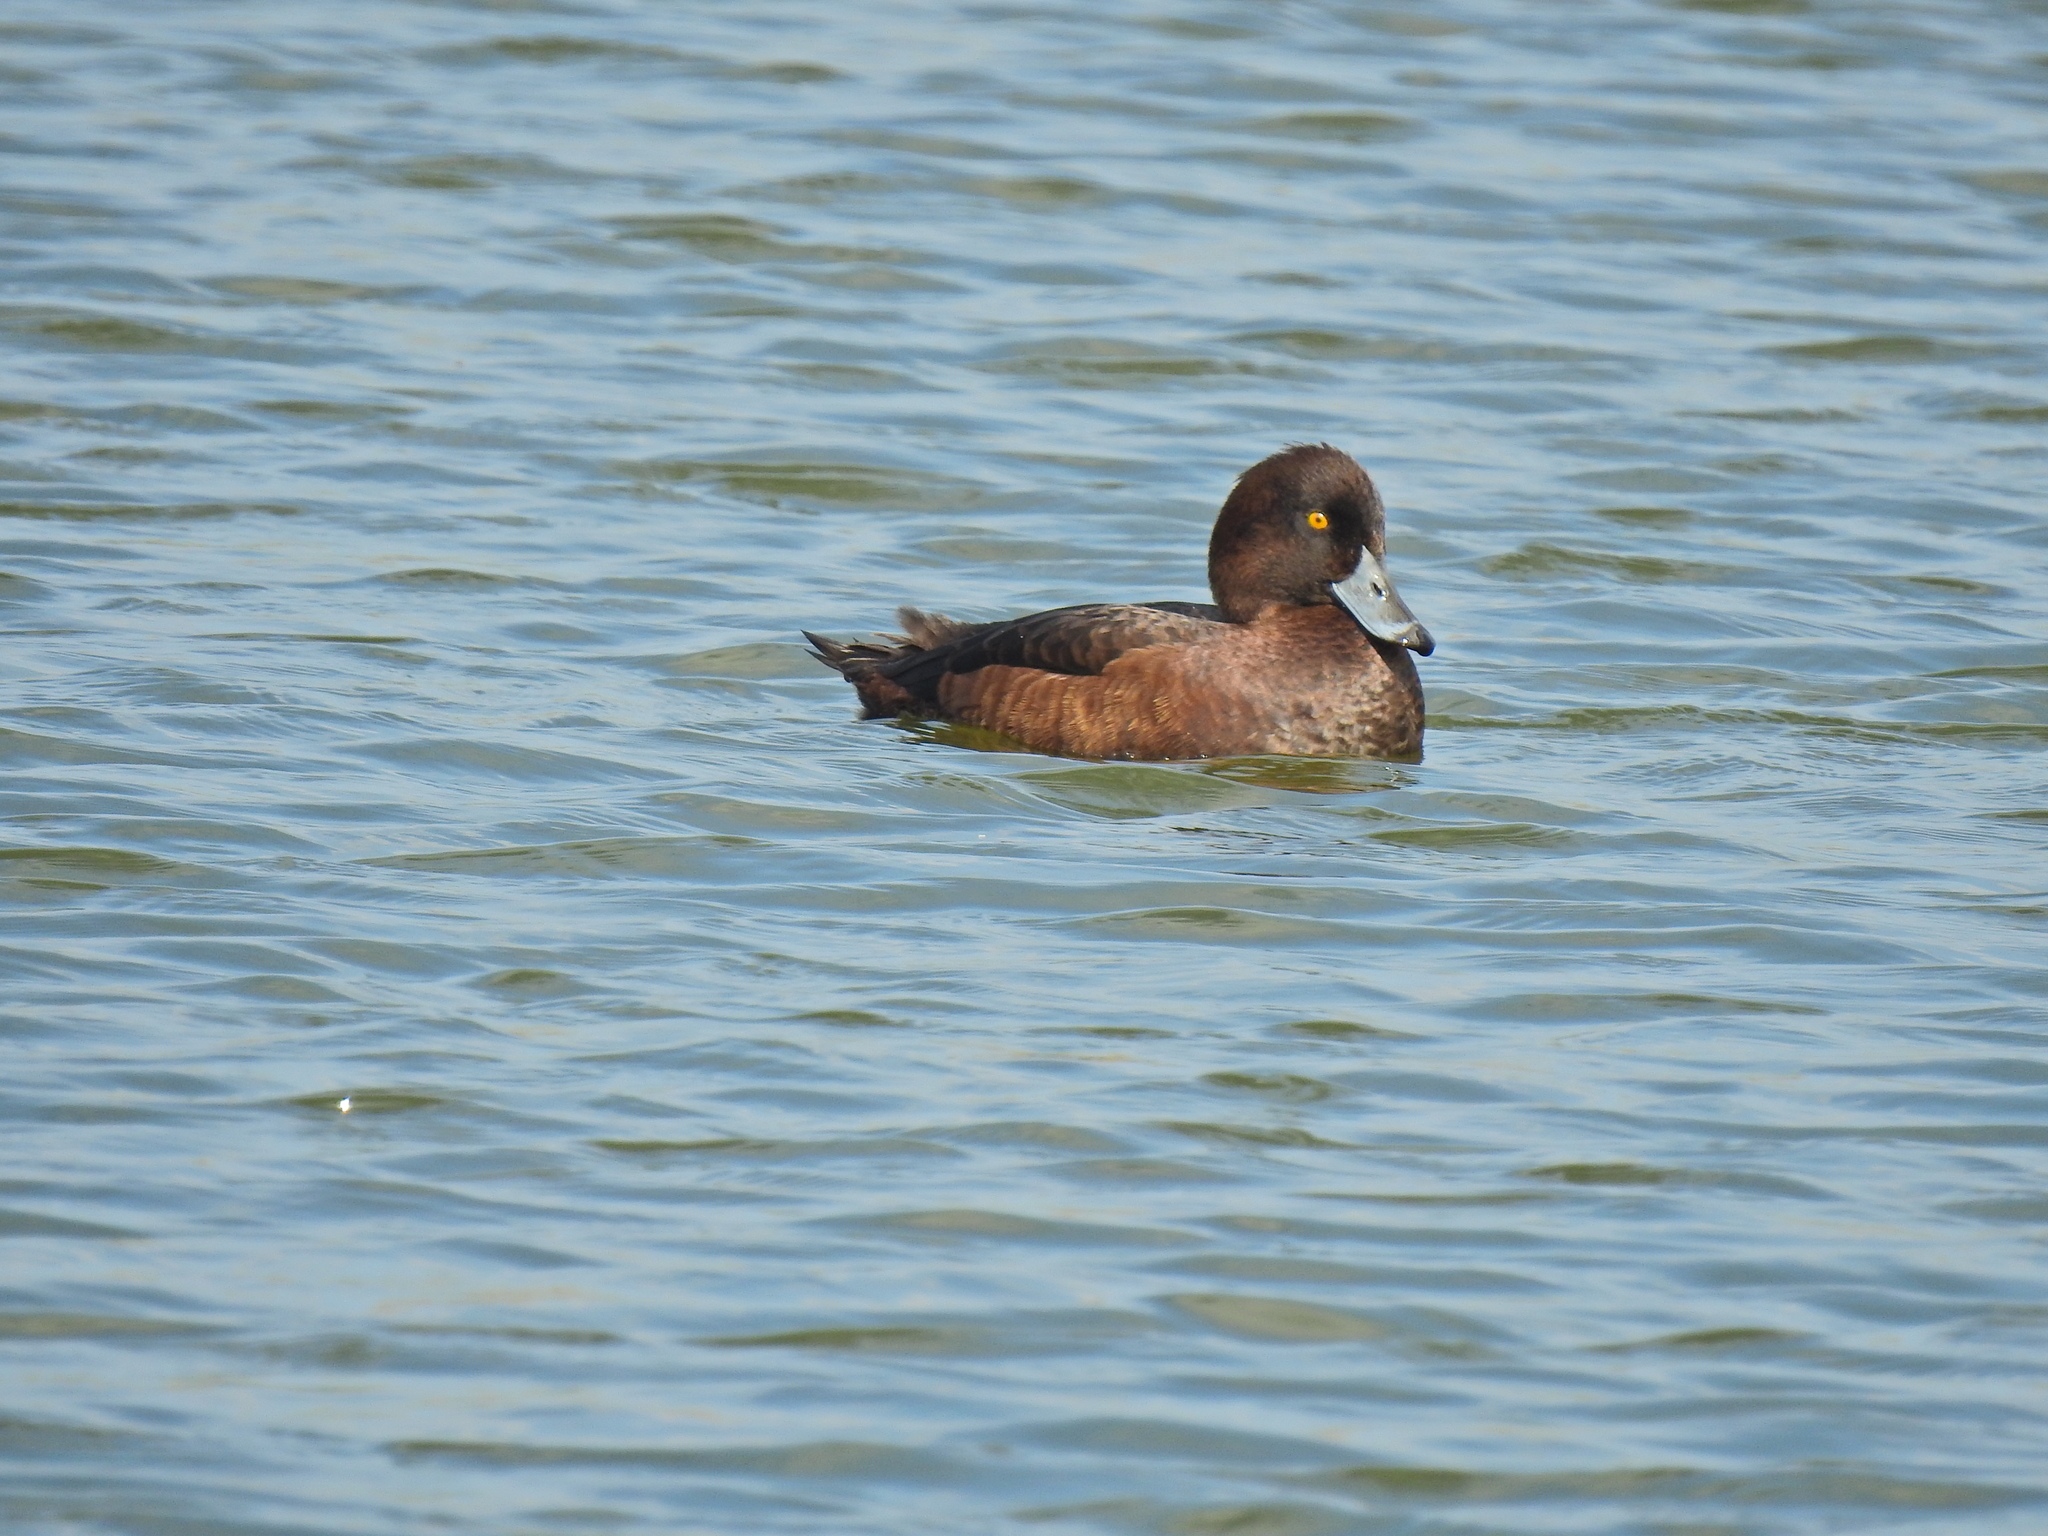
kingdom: Animalia
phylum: Chordata
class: Aves
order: Anseriformes
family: Anatidae
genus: Aythya
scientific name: Aythya fuligula
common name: Tufted duck
